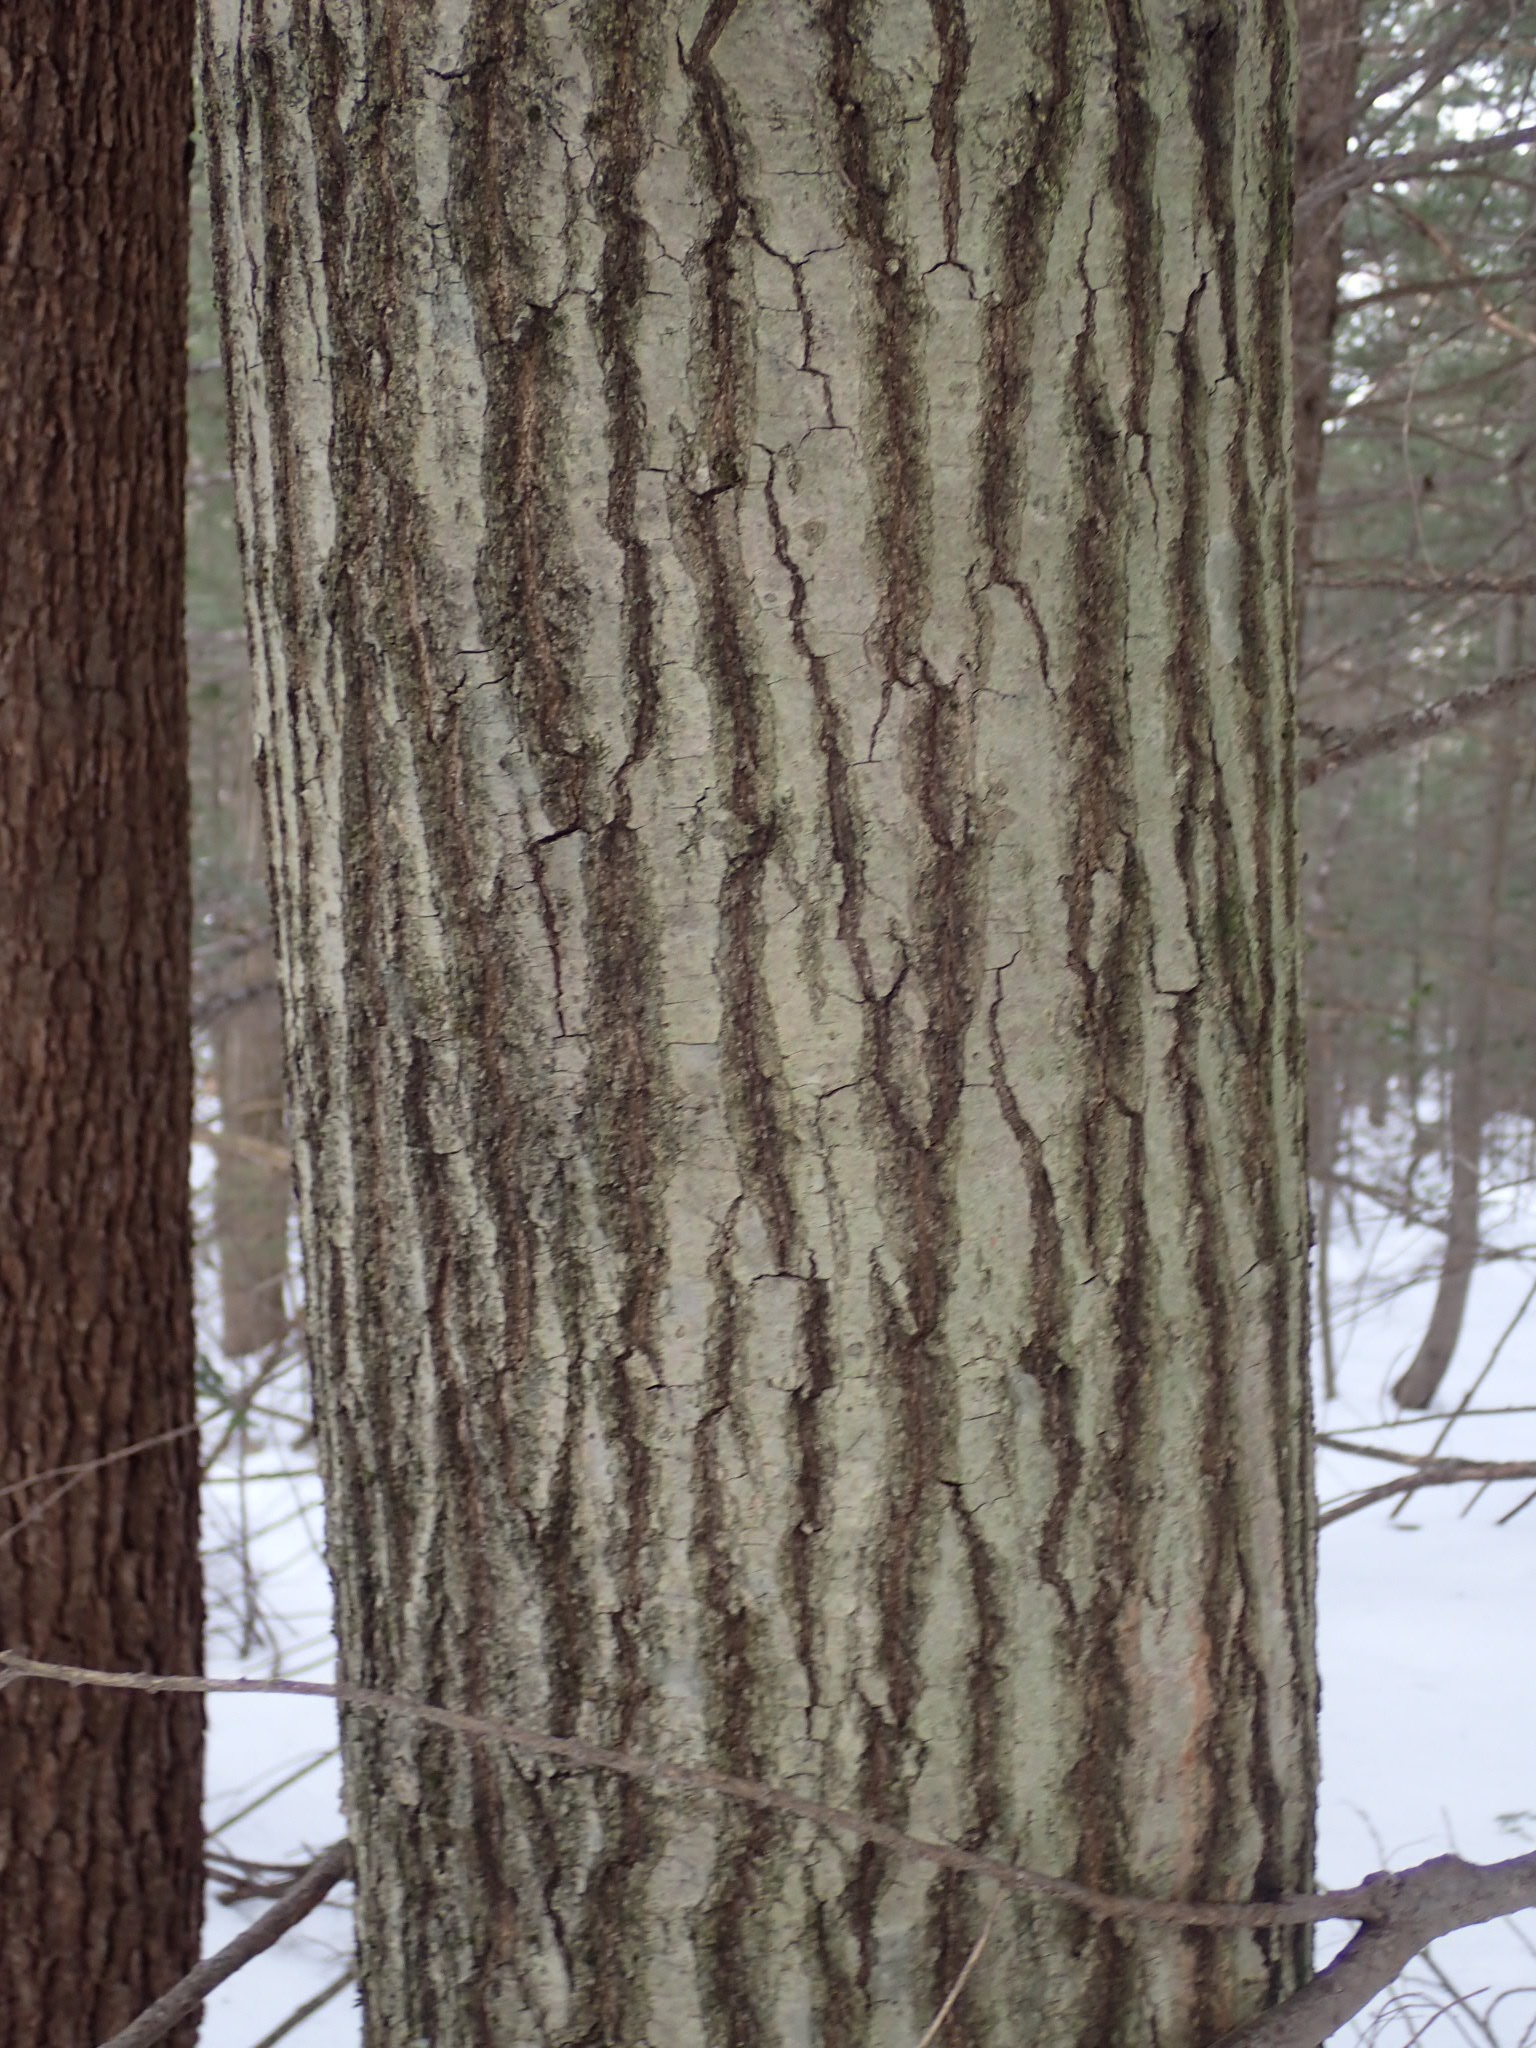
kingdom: Plantae
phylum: Tracheophyta
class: Magnoliopsida
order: Fagales
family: Fagaceae
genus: Quercus
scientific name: Quercus rubra
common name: Red oak
